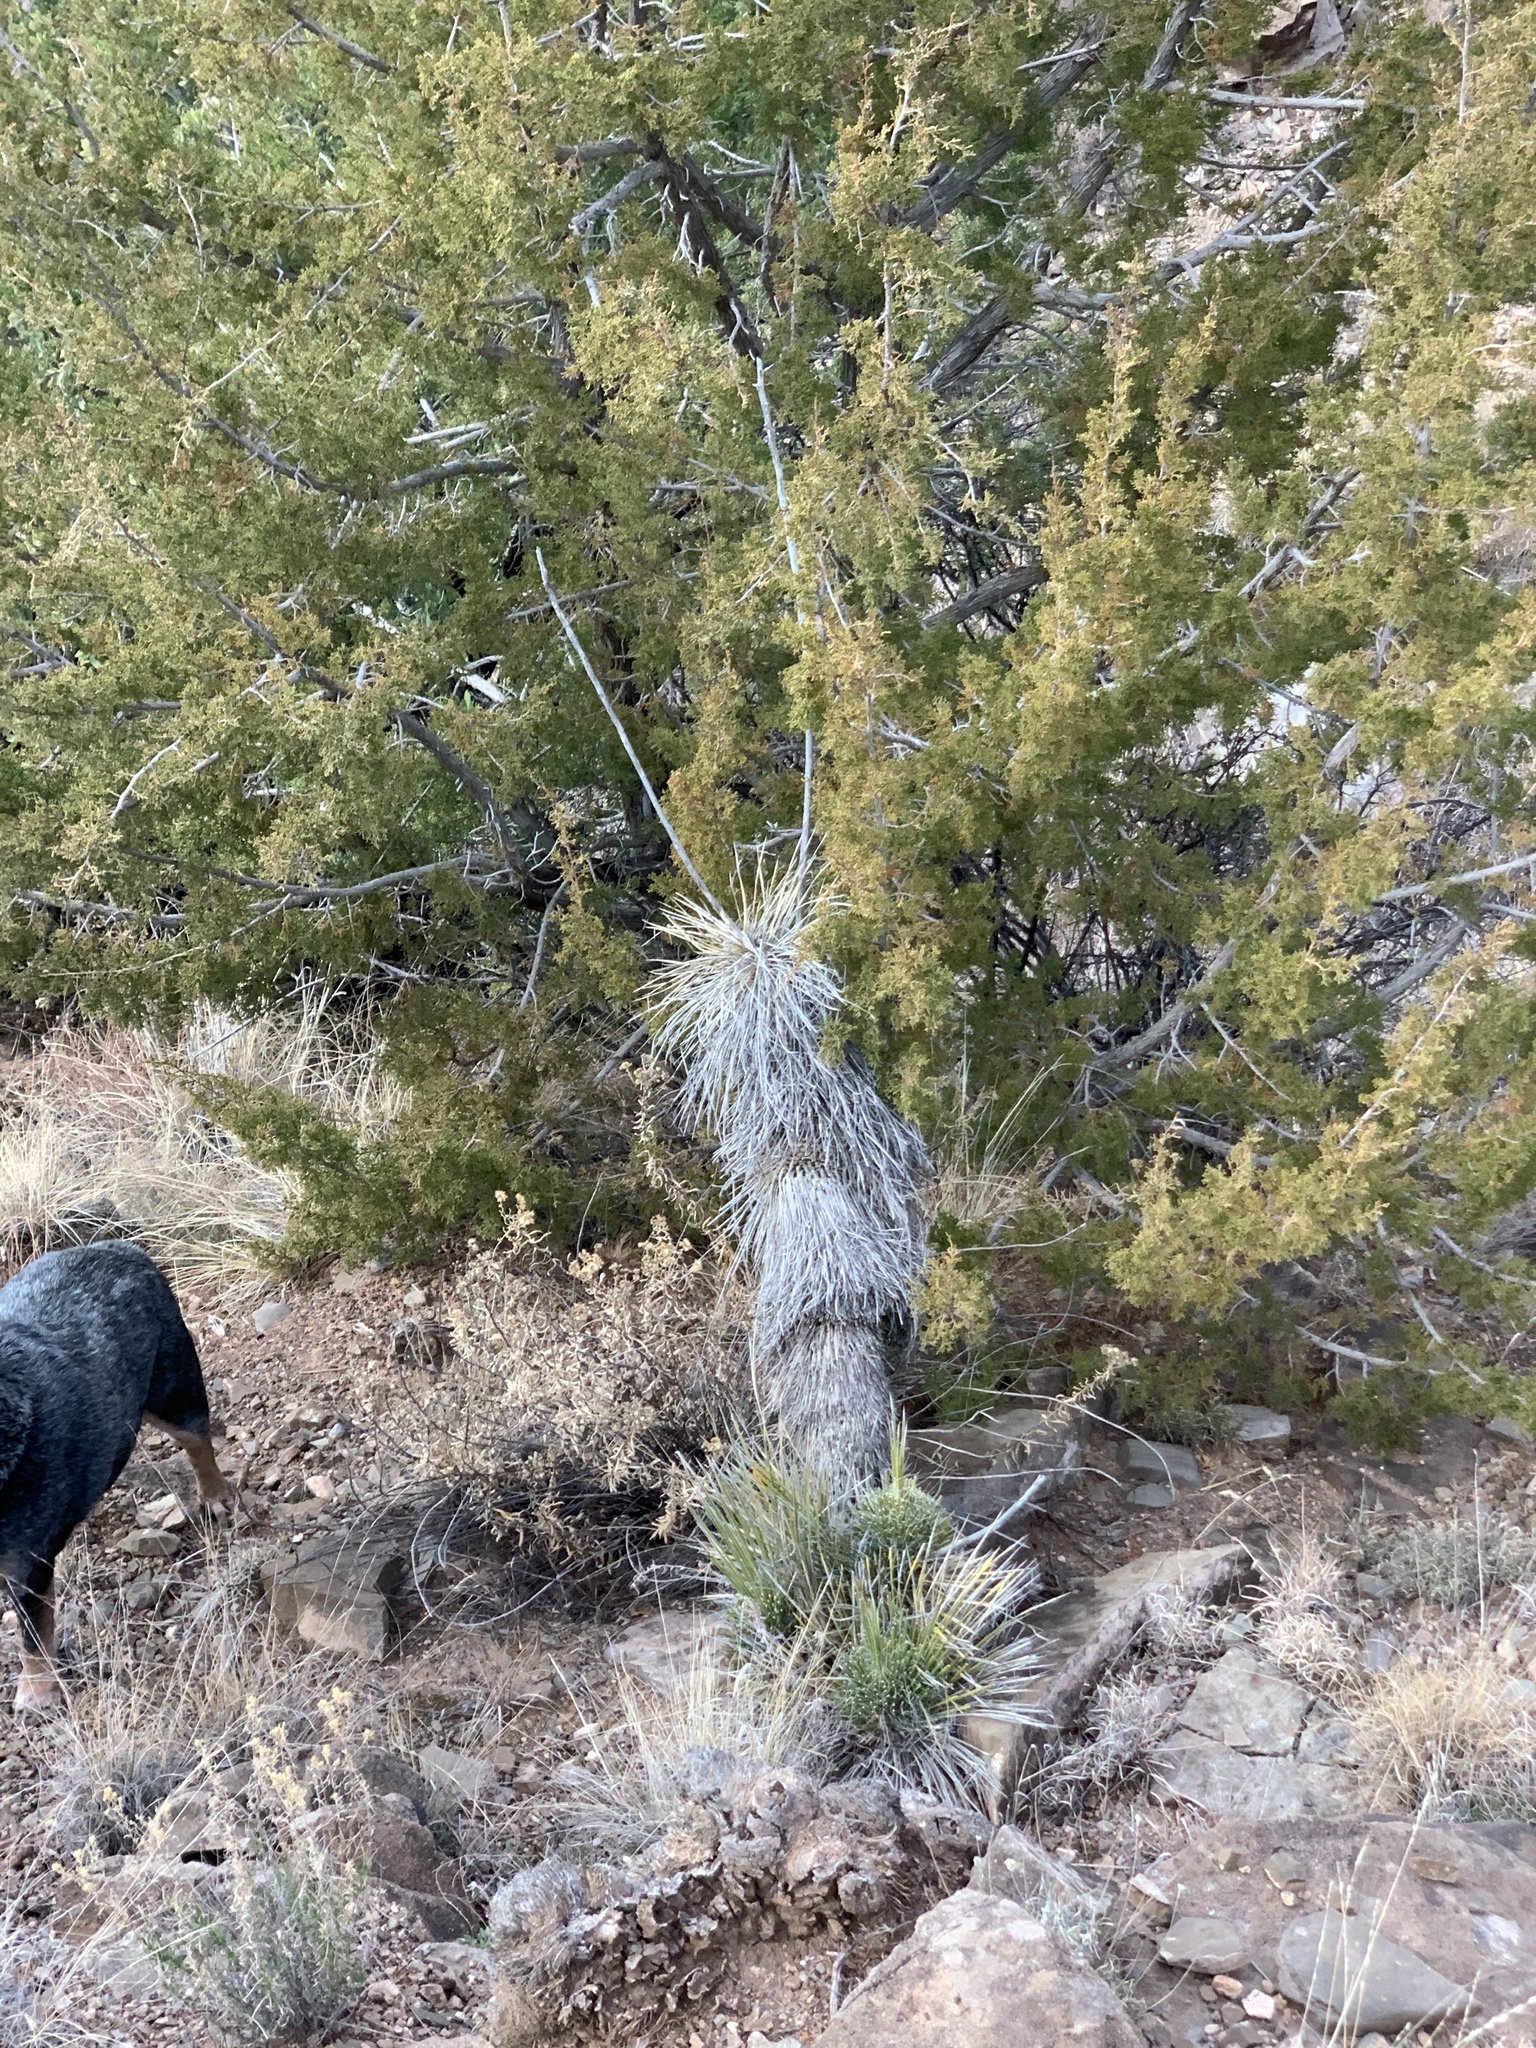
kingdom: Plantae
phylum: Tracheophyta
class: Liliopsida
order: Asparagales
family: Asparagaceae
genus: Yucca
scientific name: Yucca elata
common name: Palmella
